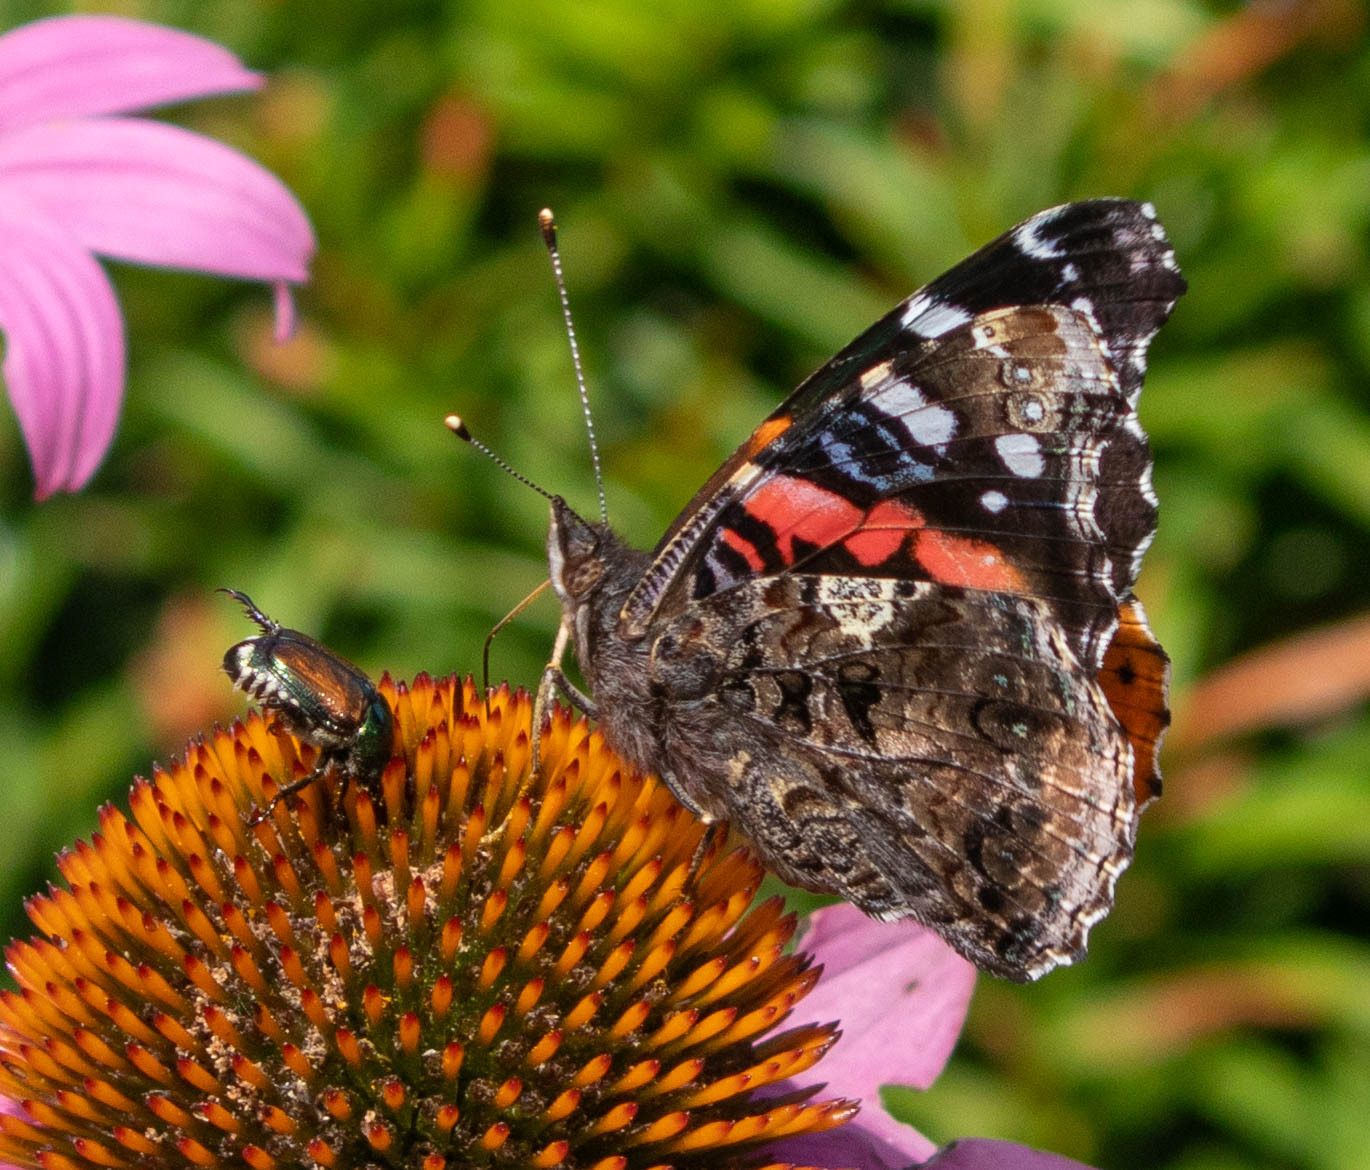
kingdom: Animalia
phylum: Arthropoda
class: Insecta
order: Lepidoptera
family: Nymphalidae
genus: Vanessa
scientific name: Vanessa atalanta
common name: Red admiral
